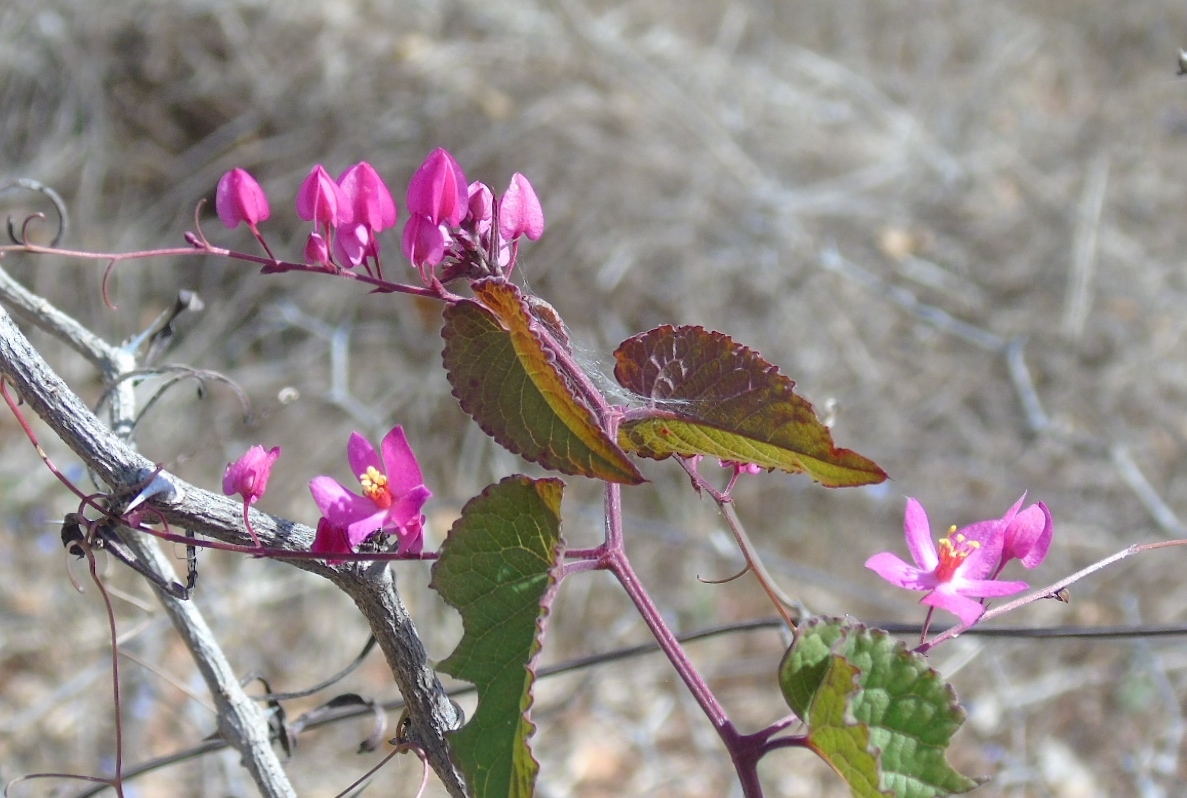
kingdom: Plantae
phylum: Tracheophyta
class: Magnoliopsida
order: Caryophyllales
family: Polygonaceae
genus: Antigonon
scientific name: Antigonon leptopus
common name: Coral vine
